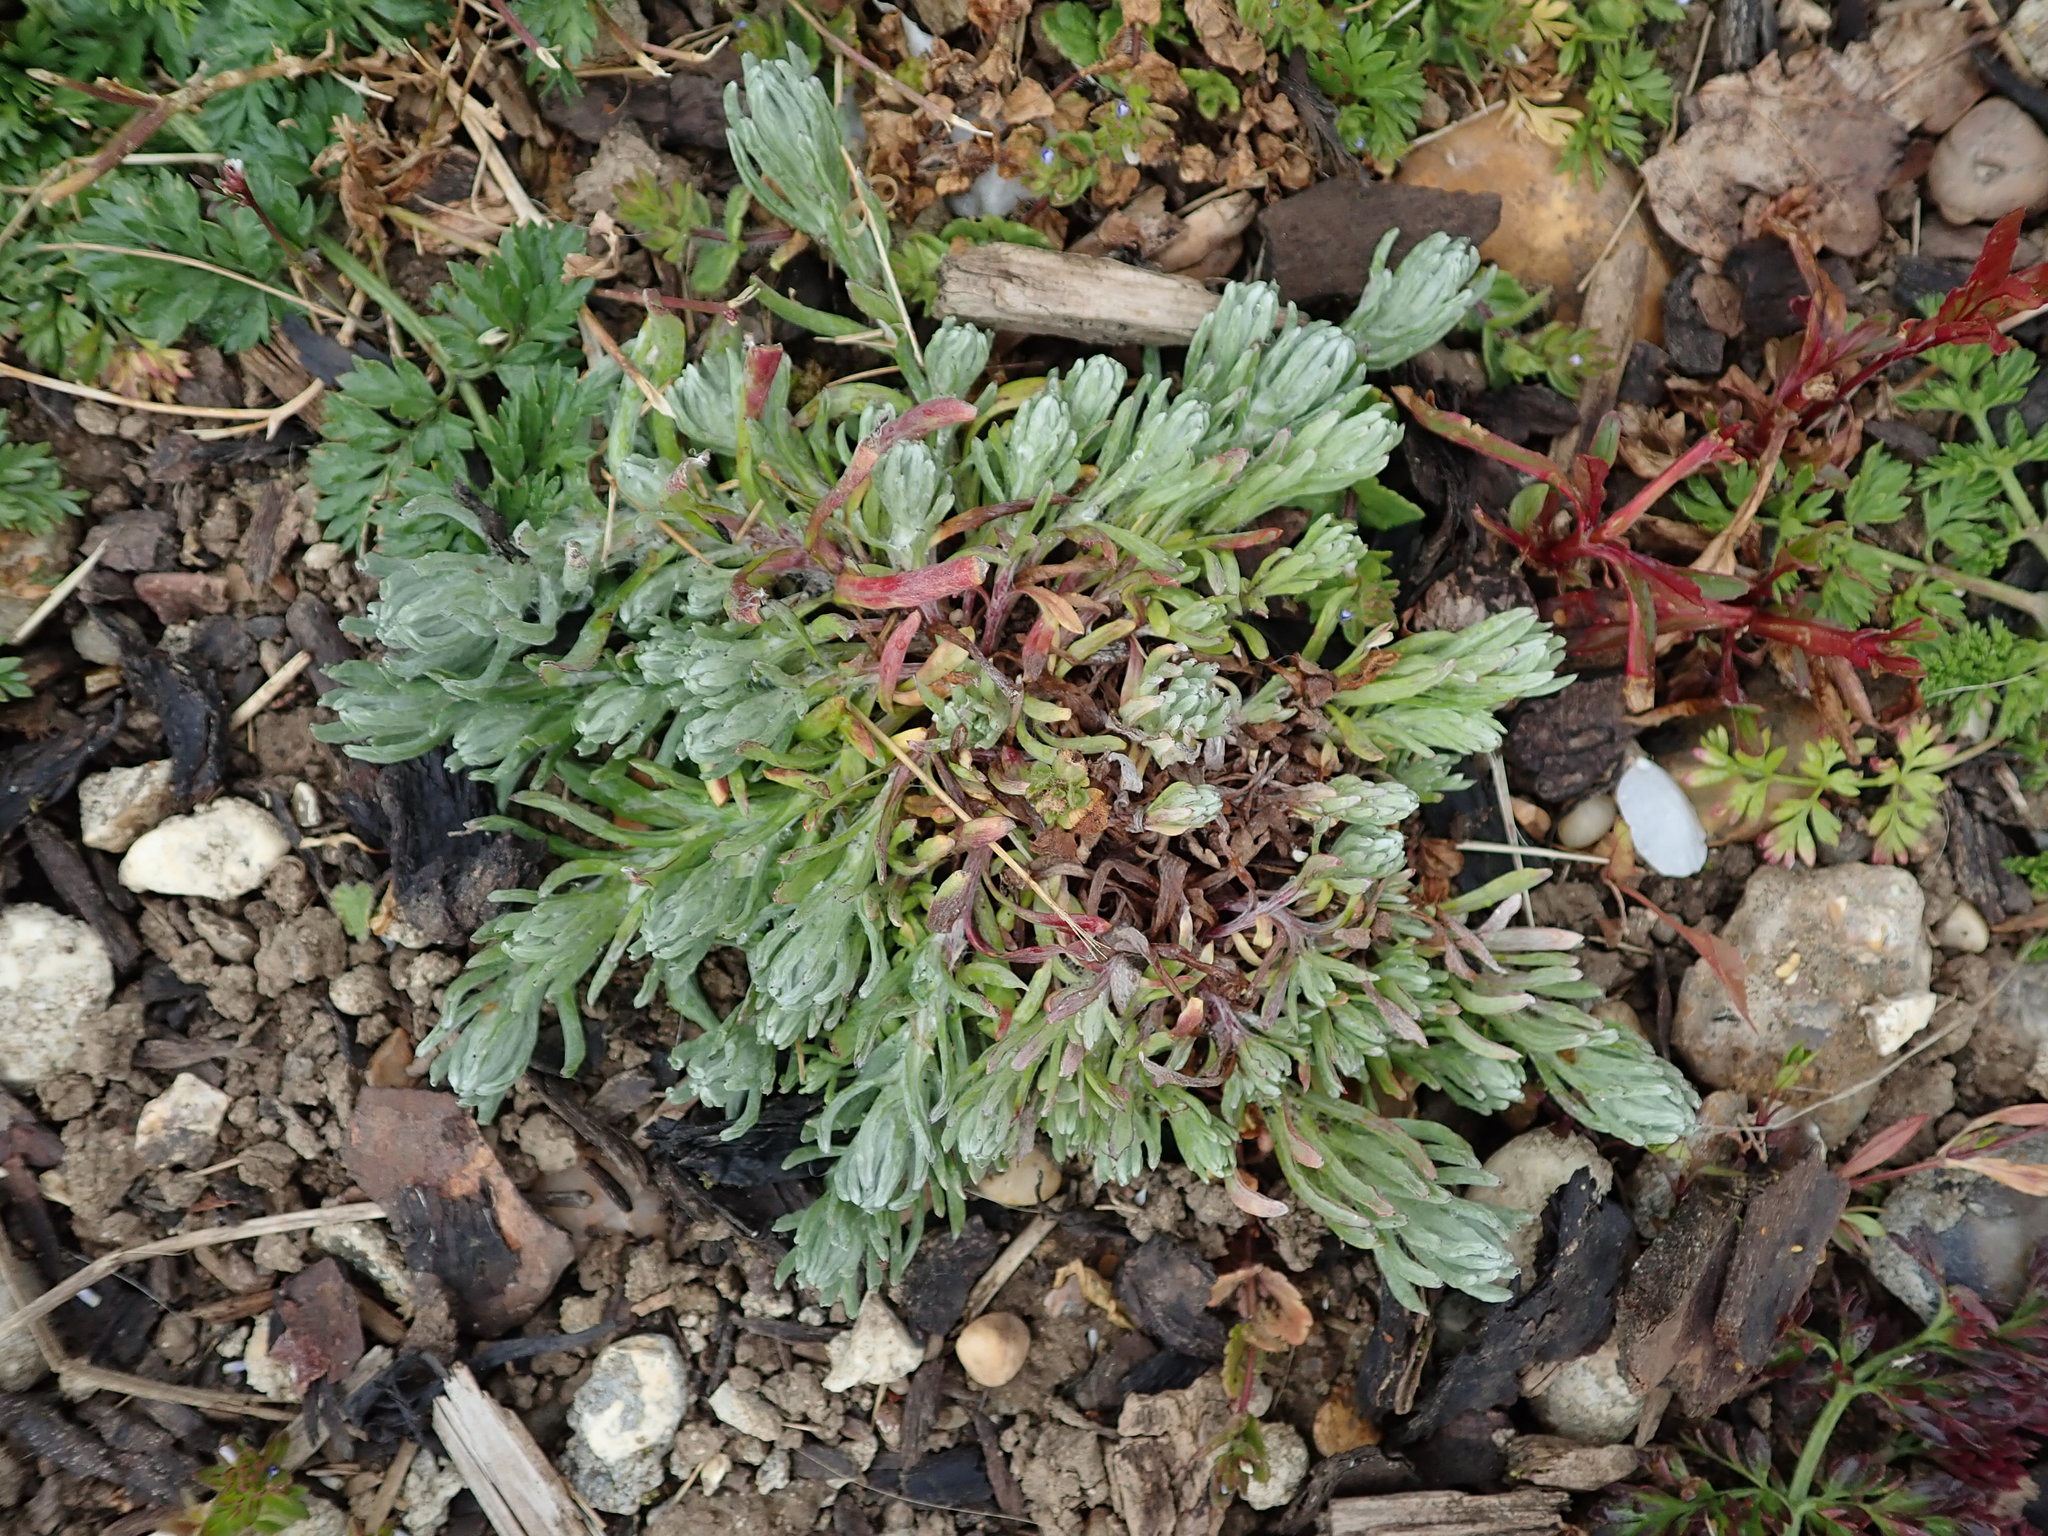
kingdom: Plantae
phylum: Tracheophyta
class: Magnoliopsida
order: Asterales
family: Asteraceae
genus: Helichrysum
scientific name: Helichrysum luteoalbum
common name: Daisy
